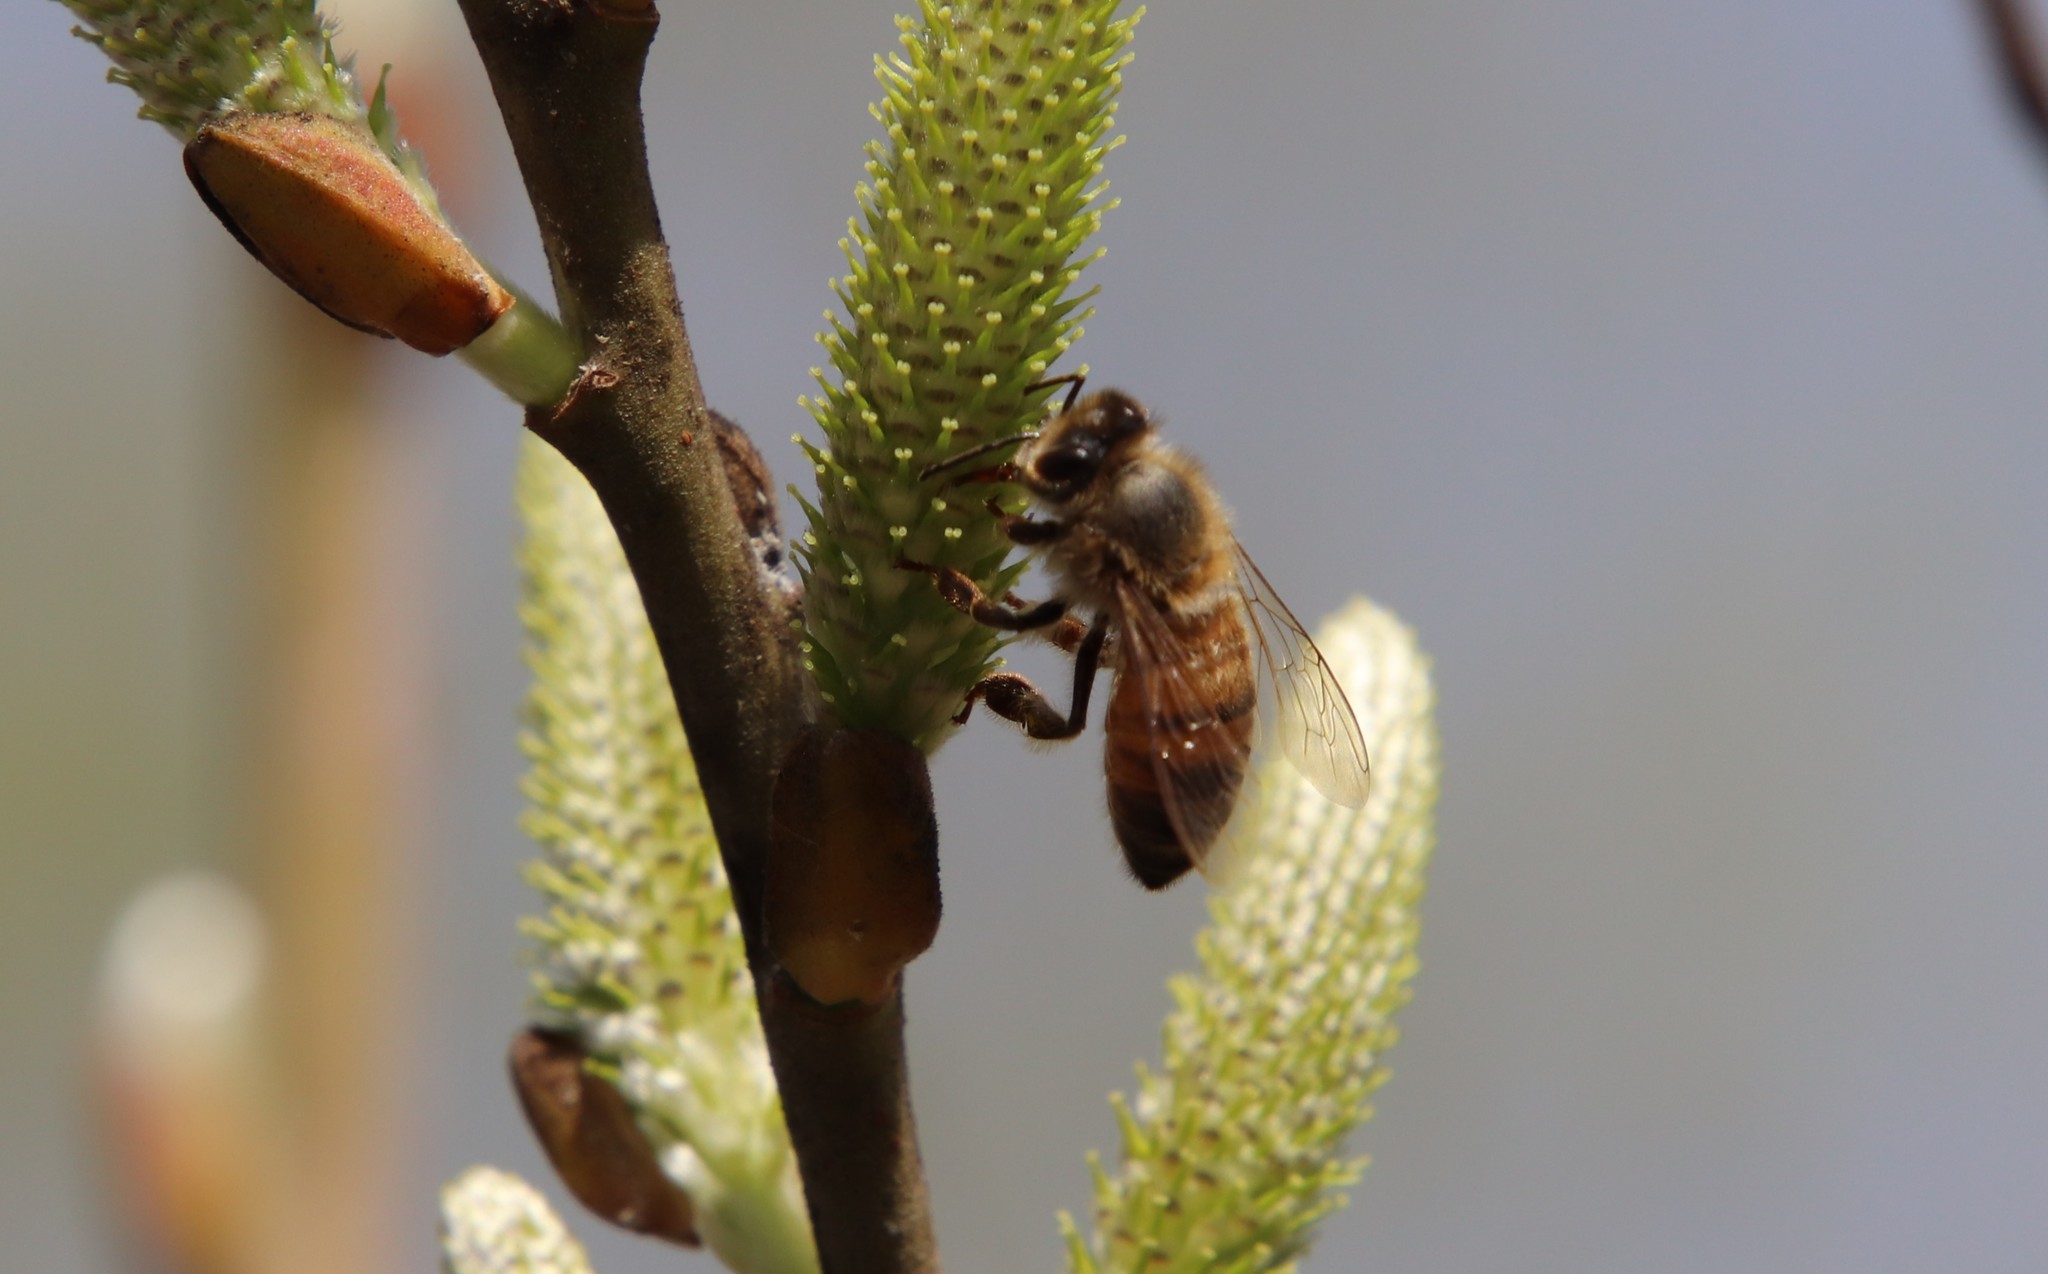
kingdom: Animalia
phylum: Arthropoda
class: Insecta
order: Hymenoptera
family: Apidae
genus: Apis
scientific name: Apis mellifera
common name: Honey bee
